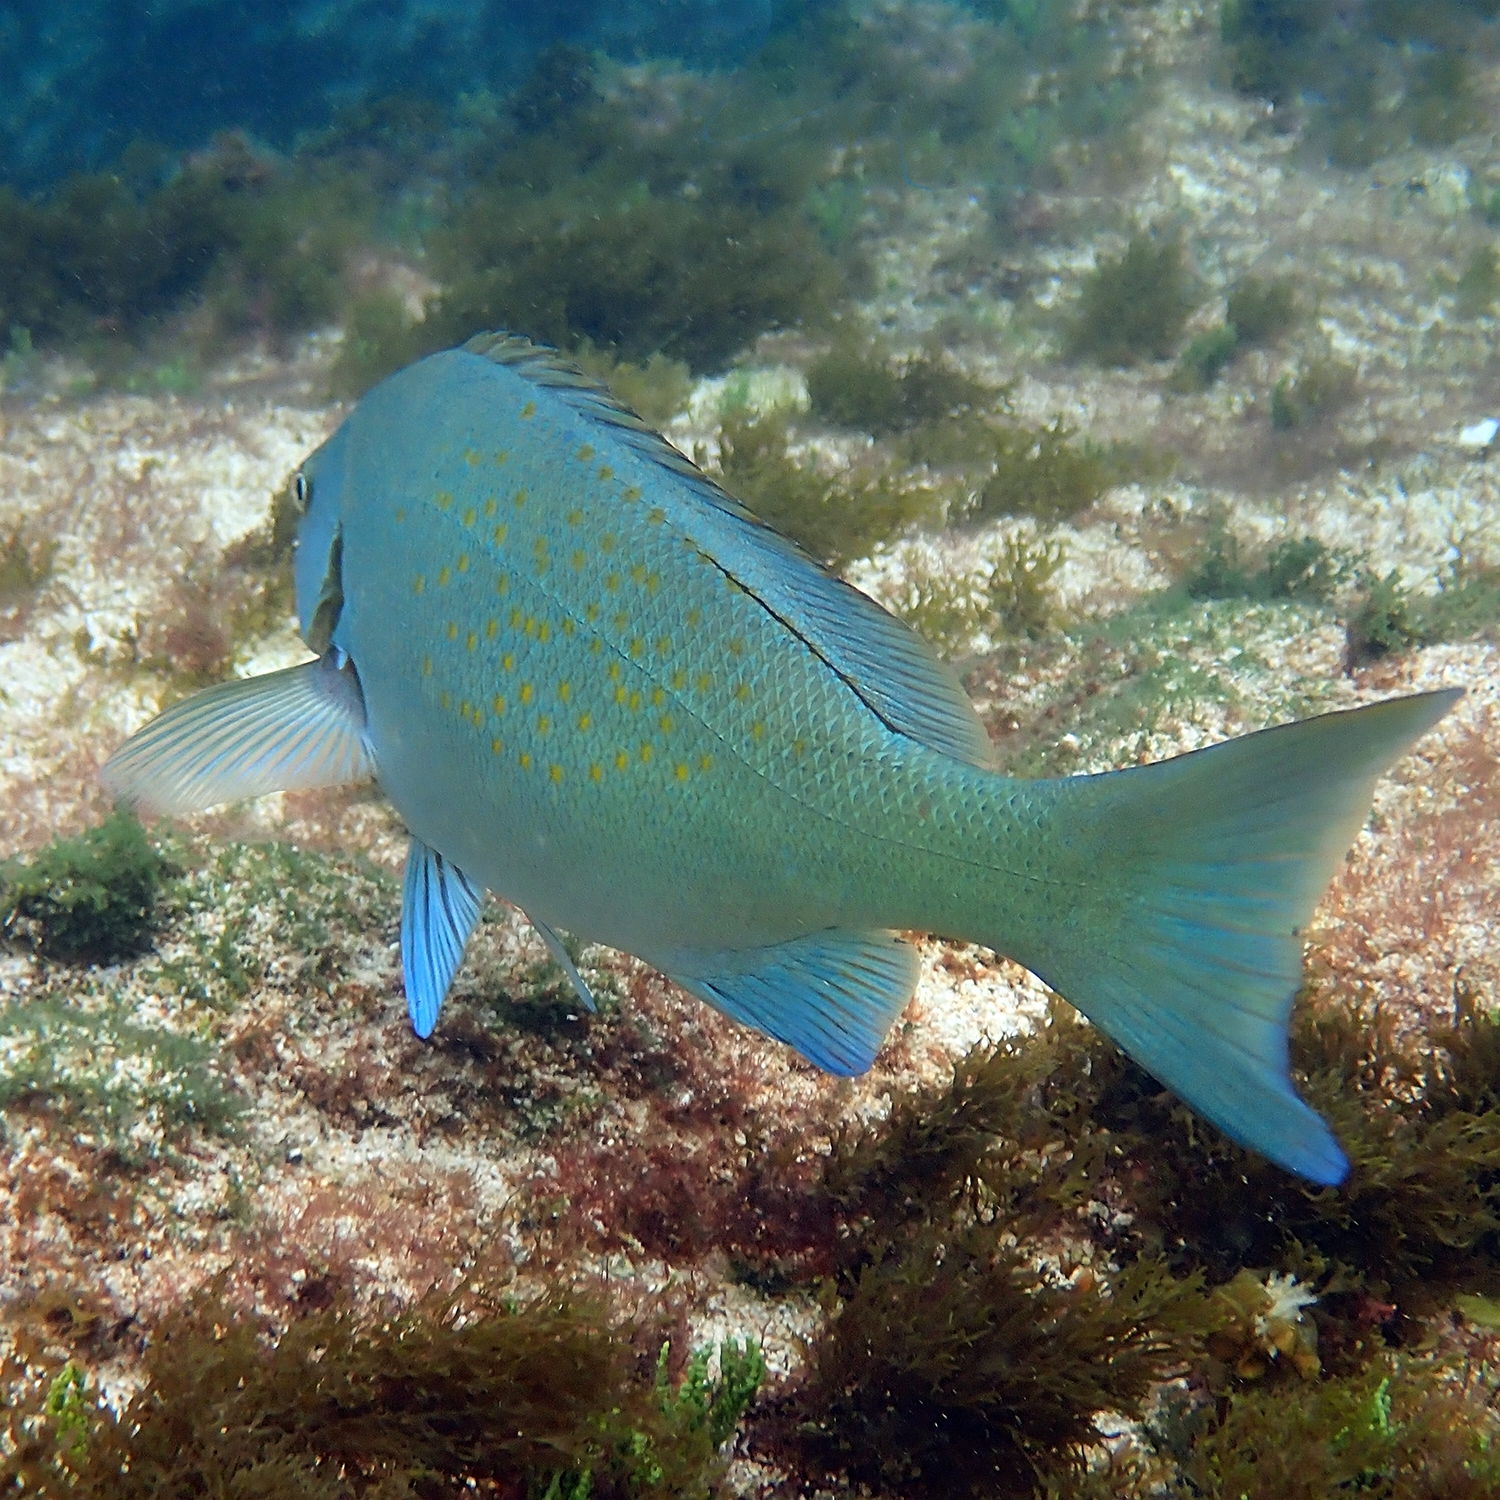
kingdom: Animalia
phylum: Chordata
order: Perciformes
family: Kyphosidae
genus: Girella
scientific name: Girella cyanea
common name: Bluefish
